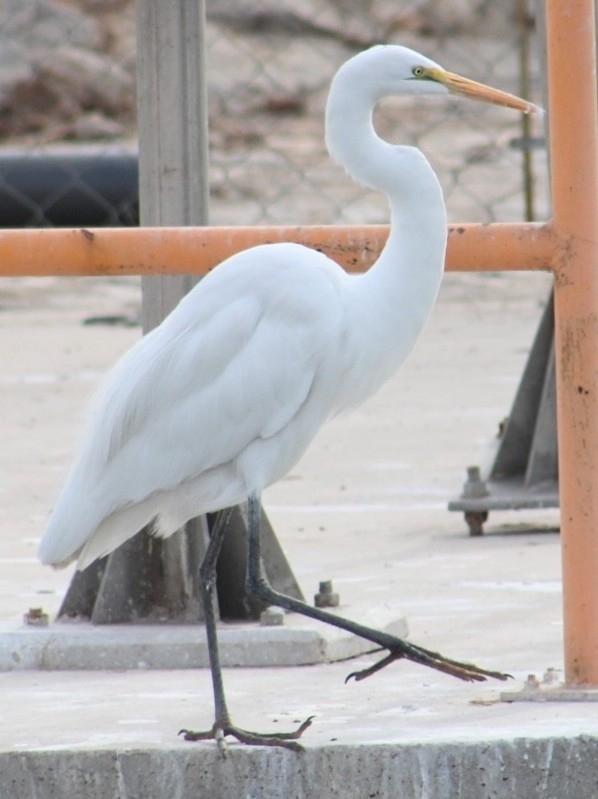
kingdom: Animalia
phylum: Chordata
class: Aves
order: Pelecaniformes
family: Ardeidae
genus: Ardea
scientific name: Ardea alba
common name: Great egret
